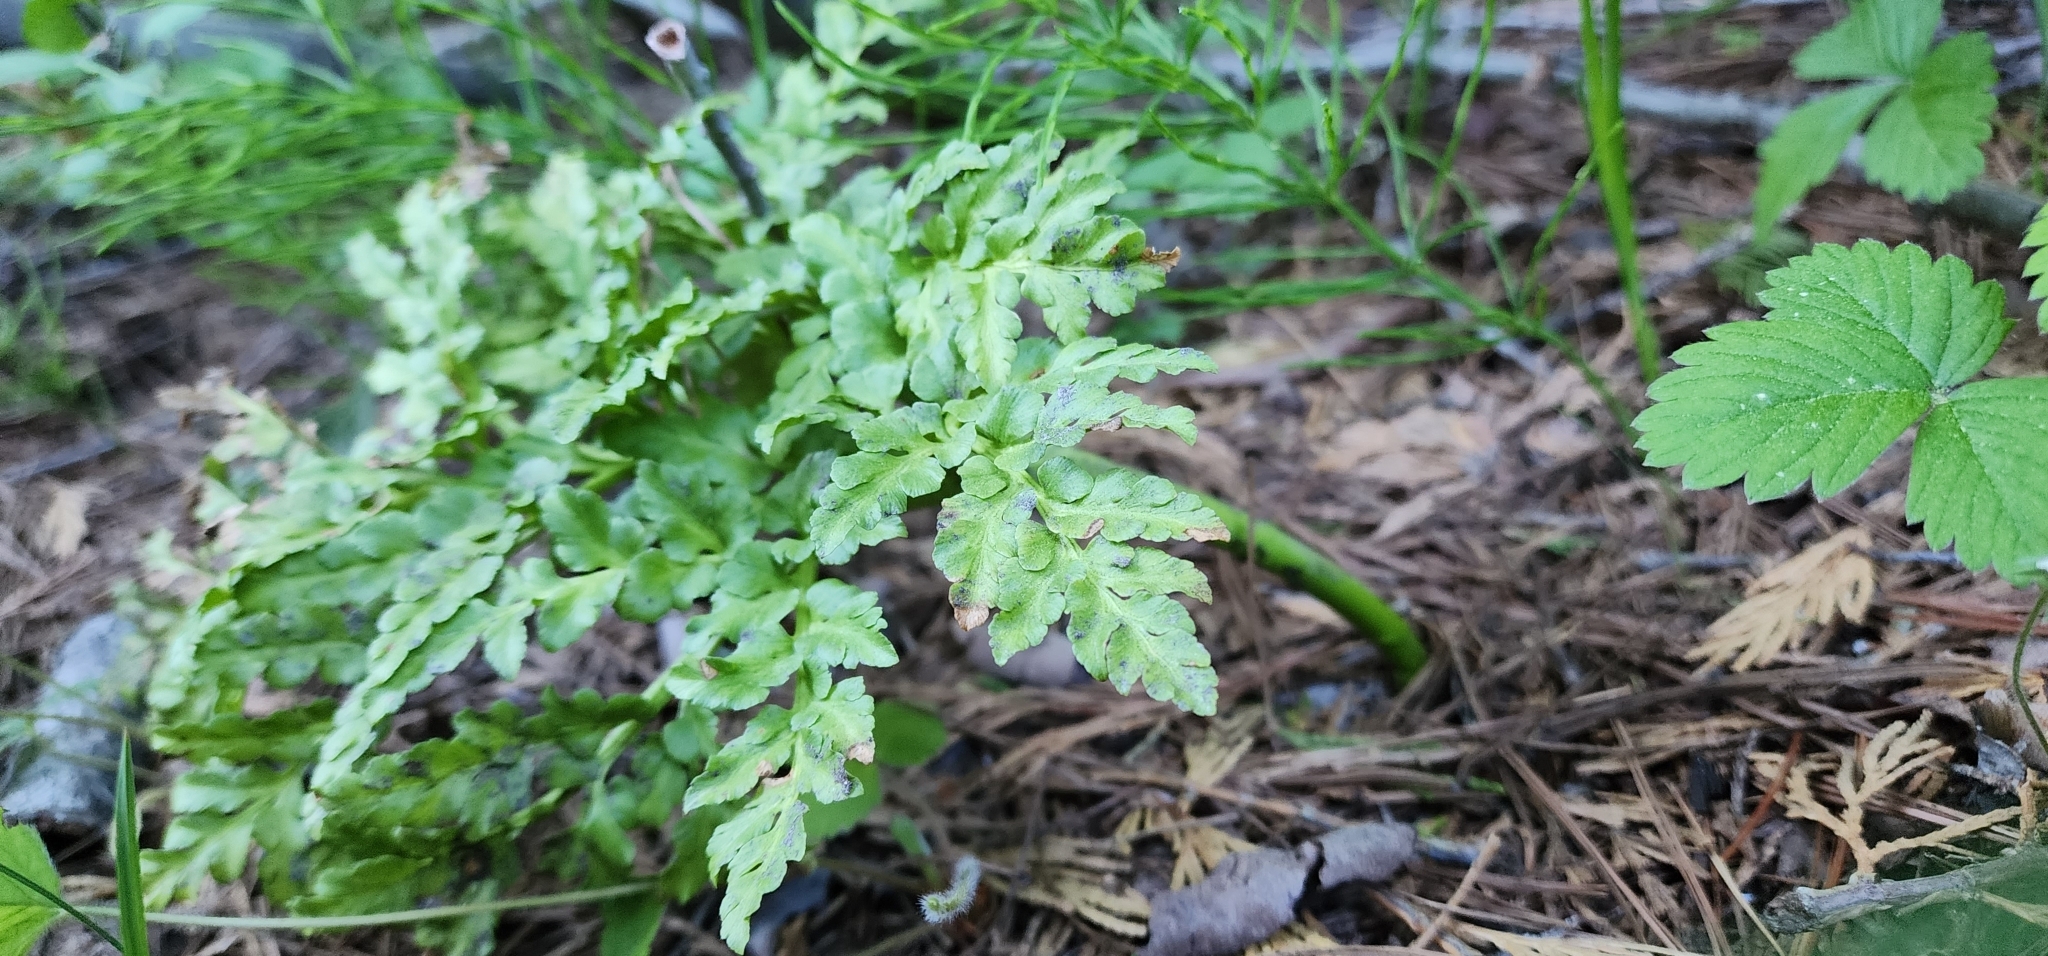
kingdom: Plantae
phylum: Tracheophyta
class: Polypodiopsida
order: Ophioglossales
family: Ophioglossaceae
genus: Sceptridium
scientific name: Sceptridium multifidum
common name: Leathery grape fern
